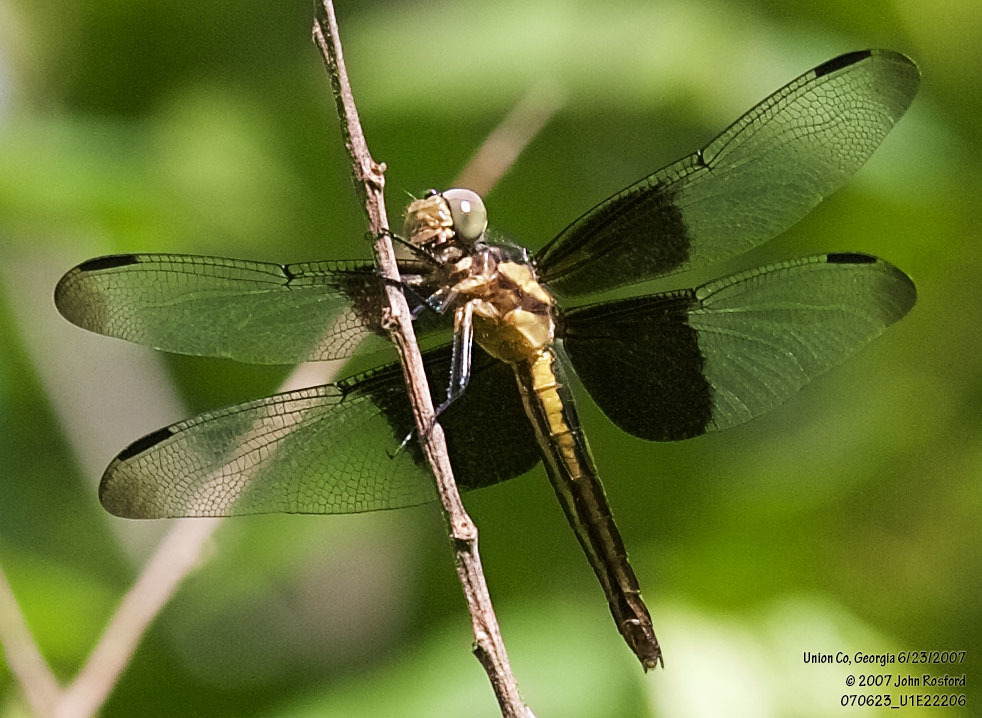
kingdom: Animalia
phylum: Arthropoda
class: Insecta
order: Odonata
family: Libellulidae
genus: Libellula
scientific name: Libellula luctuosa
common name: Widow skimmer
